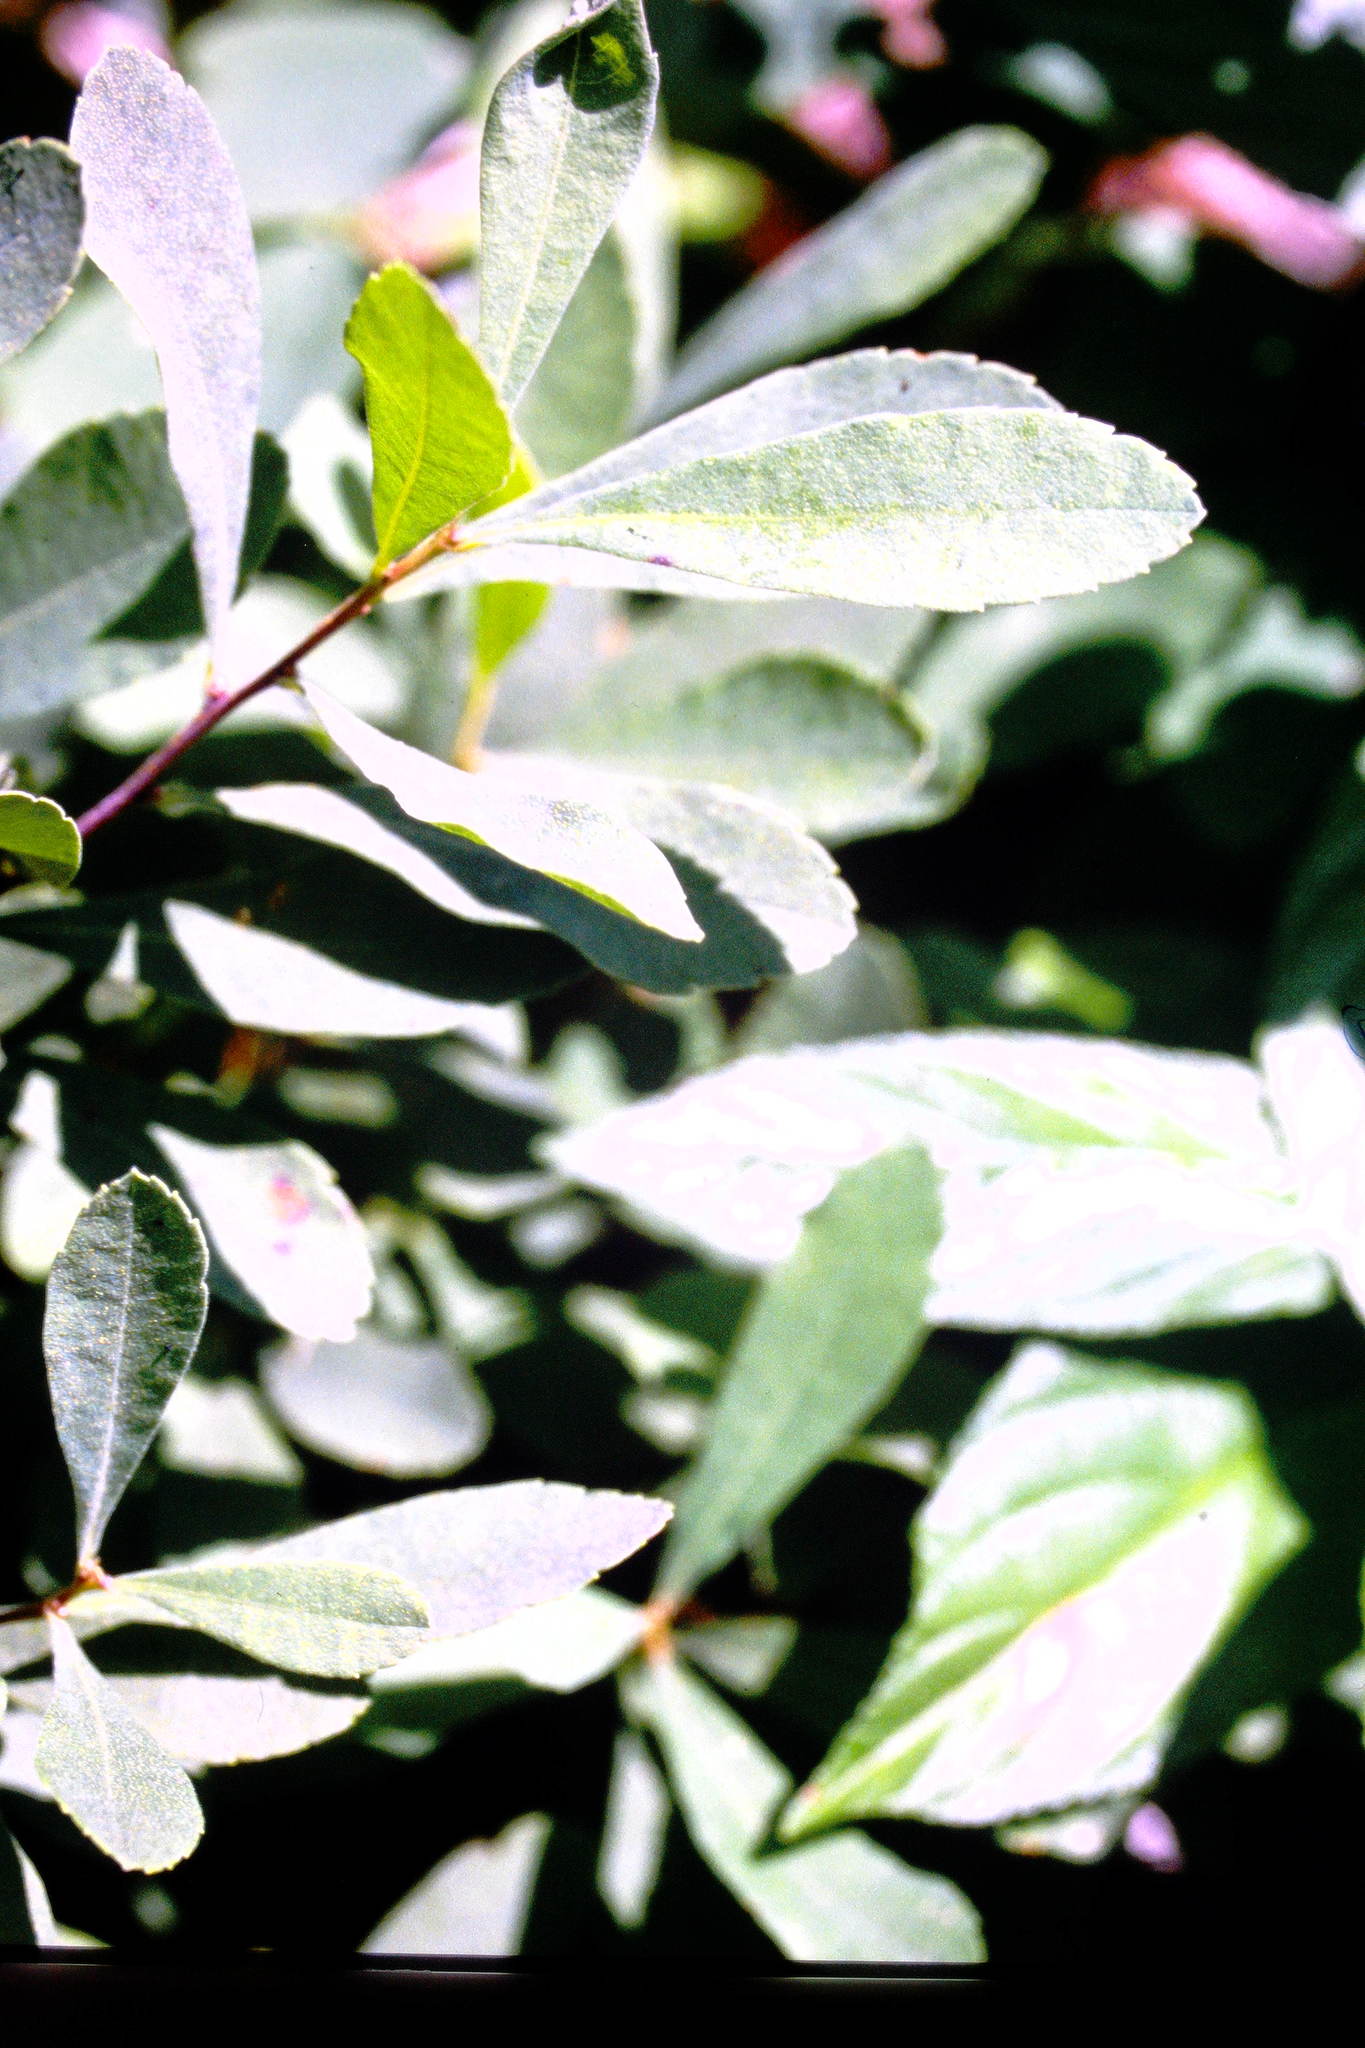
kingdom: Plantae
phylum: Tracheophyta
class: Magnoliopsida
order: Fagales
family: Myricaceae
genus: Myrica
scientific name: Myrica gale
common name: Sweet gale
